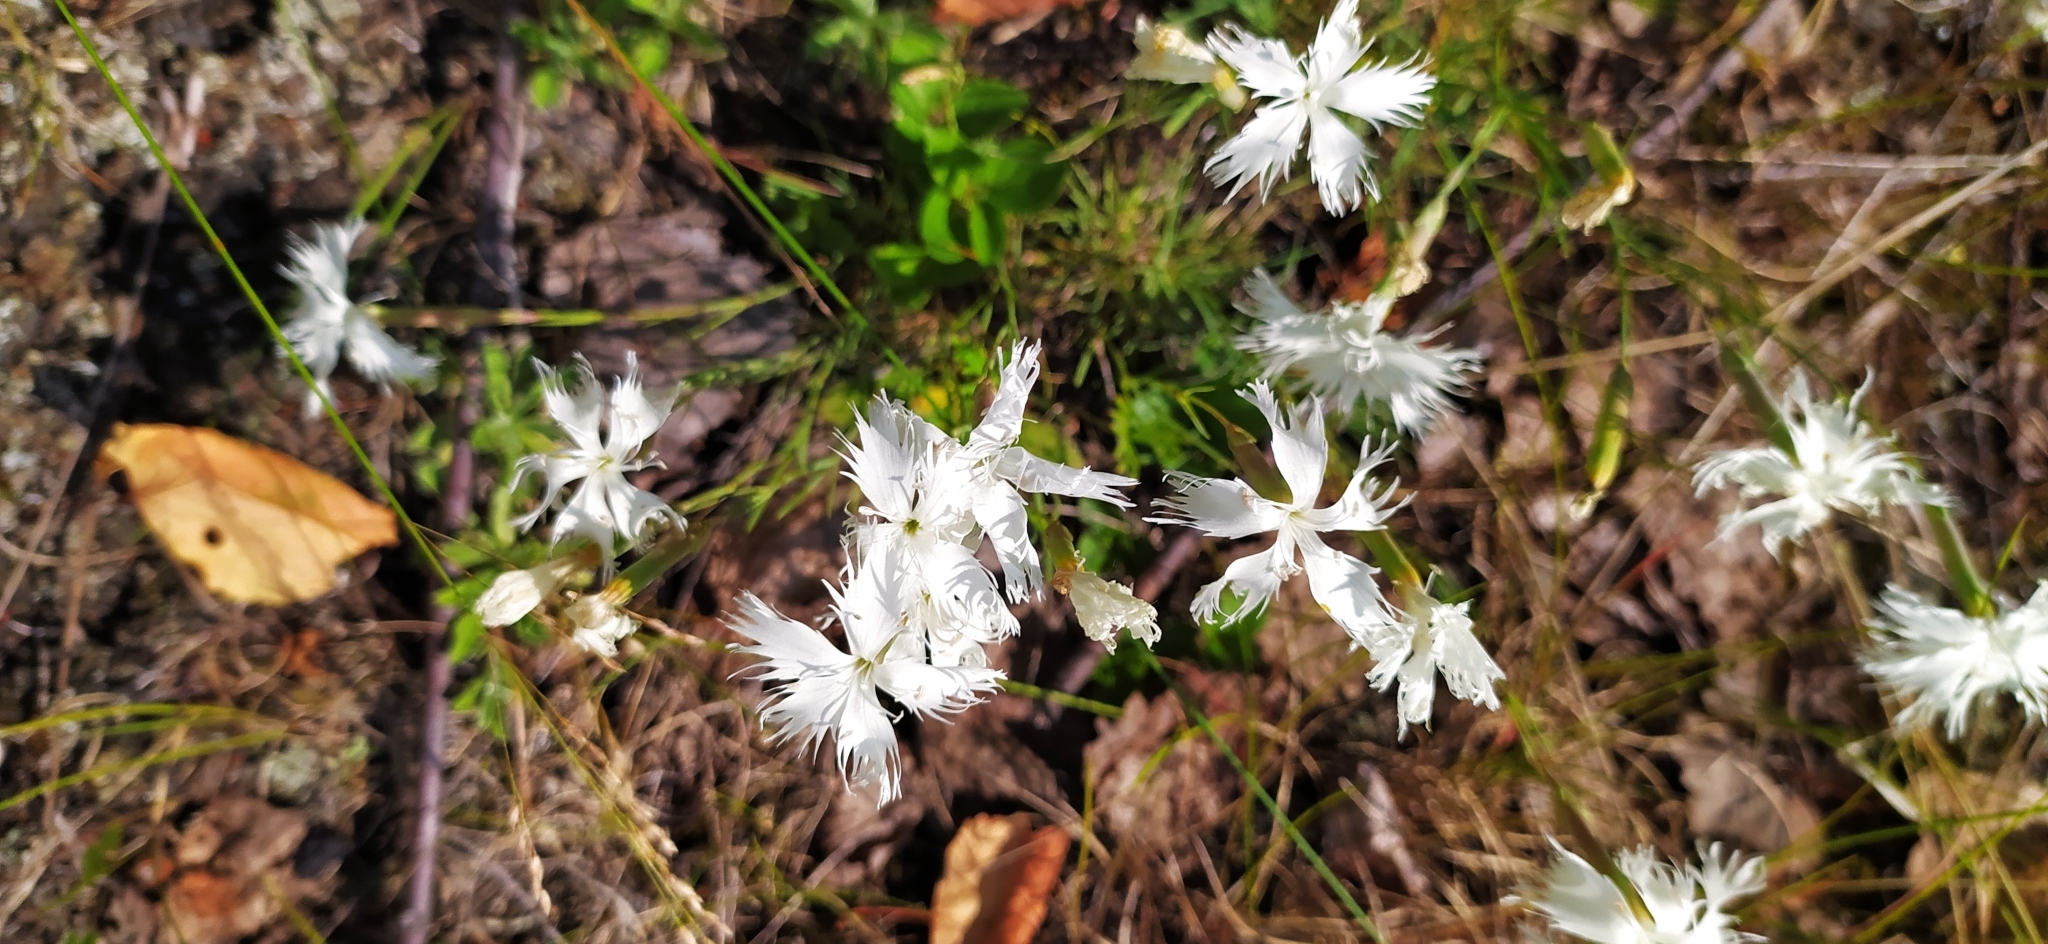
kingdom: Plantae
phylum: Tracheophyta
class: Magnoliopsida
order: Caryophyllales
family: Caryophyllaceae
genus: Dianthus
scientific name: Dianthus acicularis
